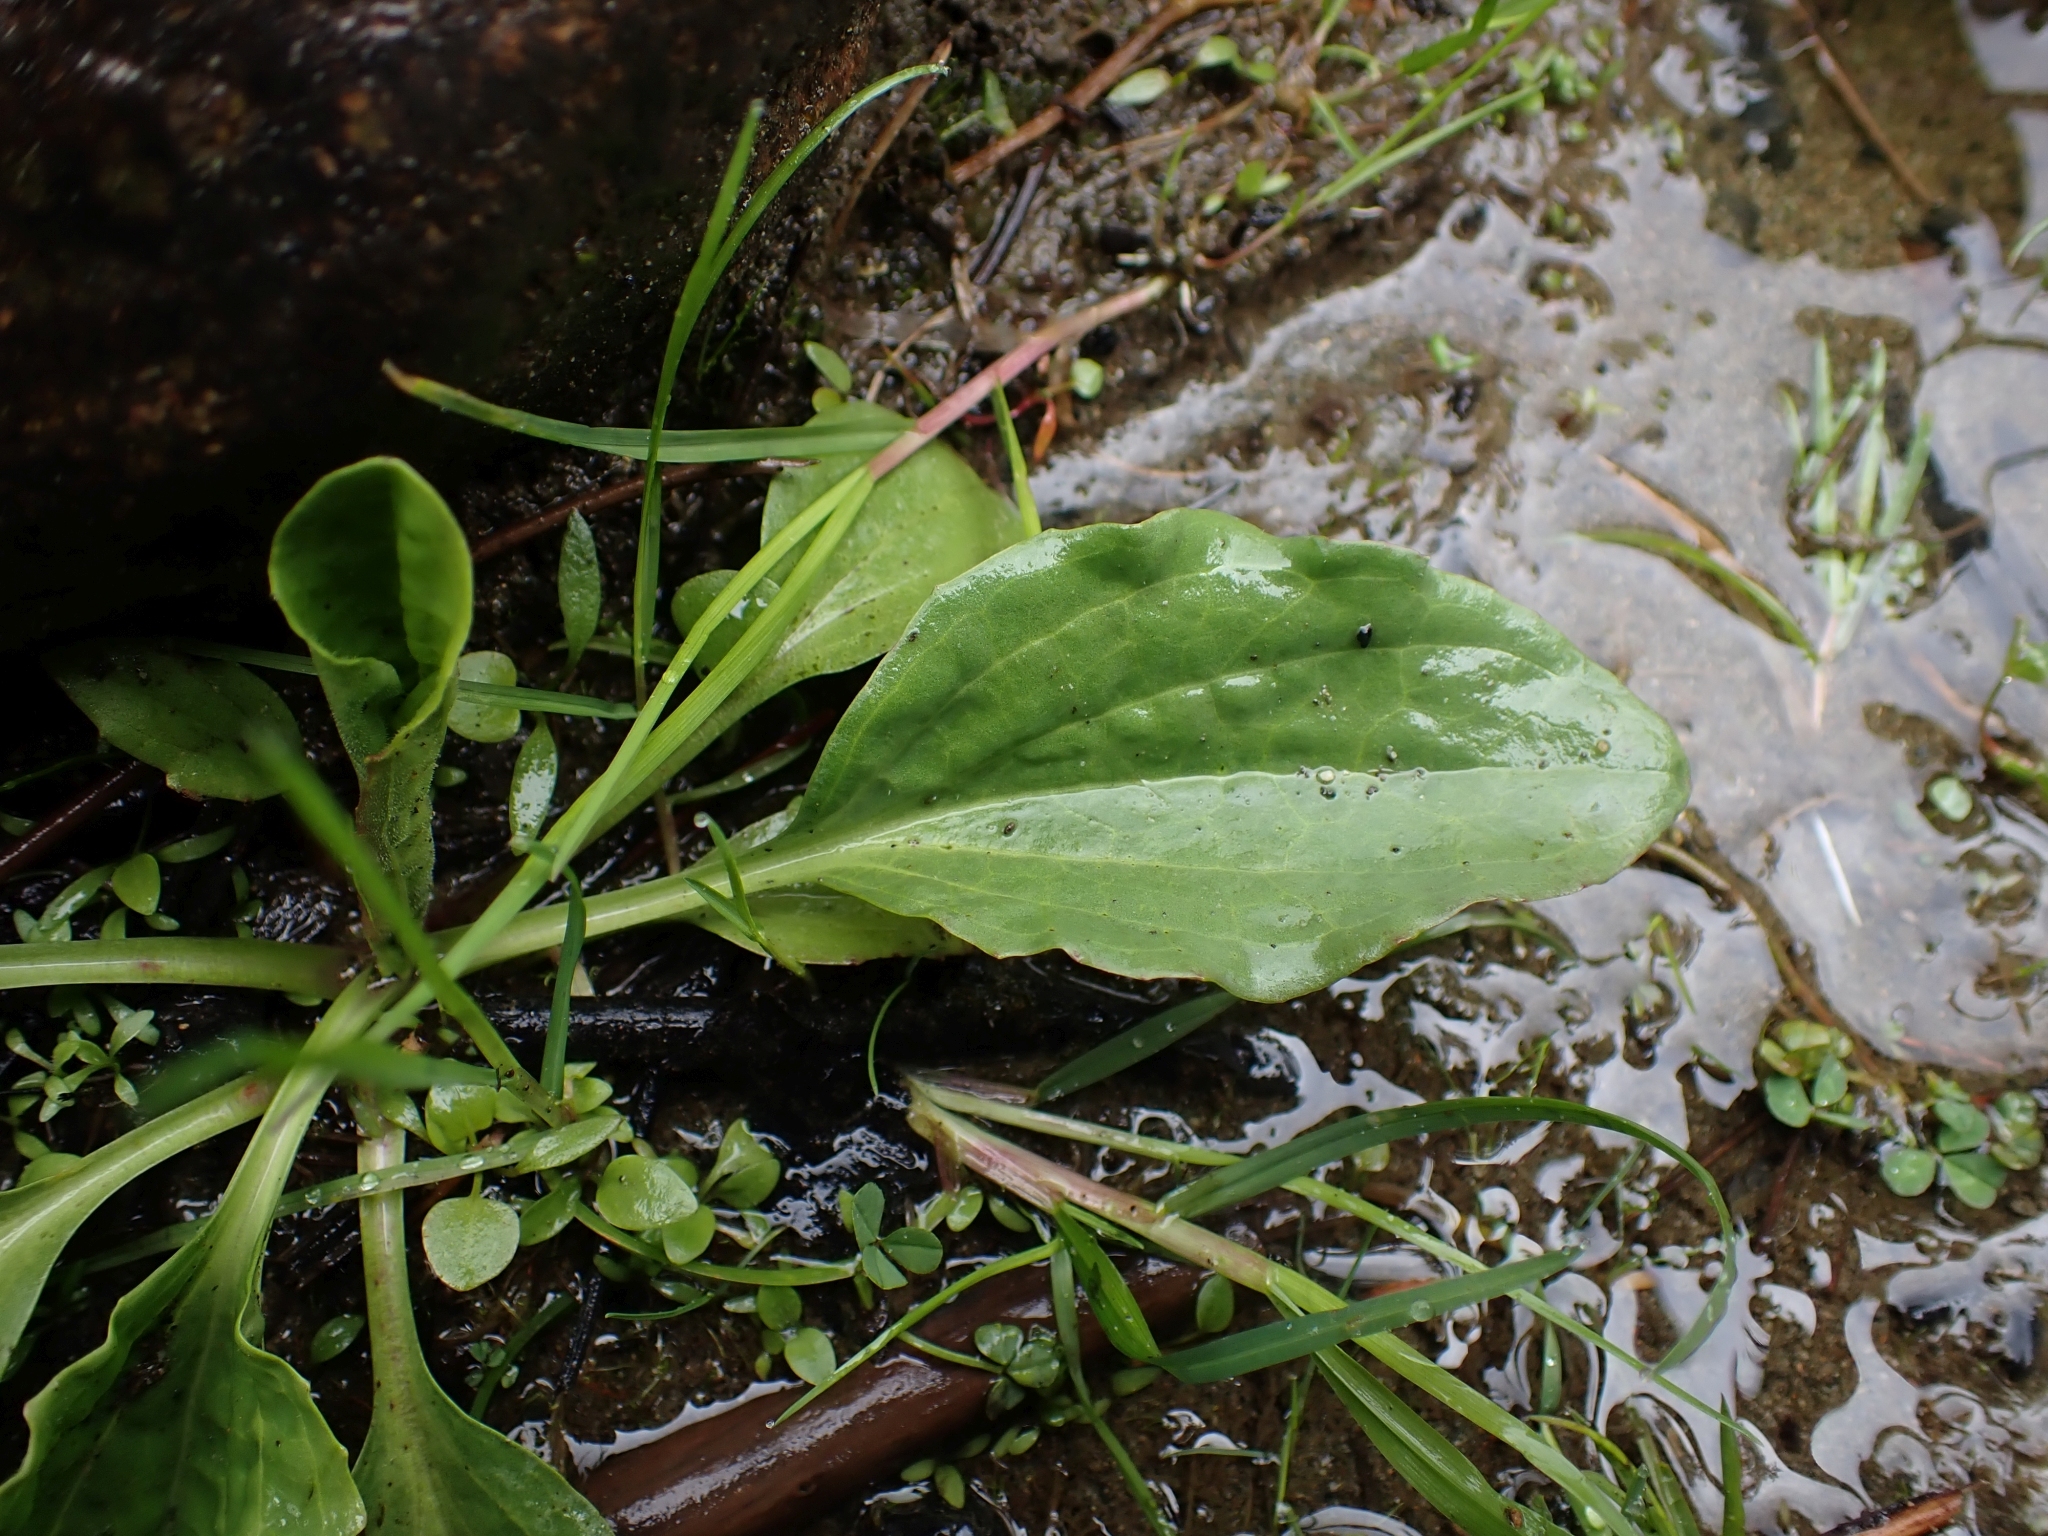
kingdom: Plantae
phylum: Tracheophyta
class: Magnoliopsida
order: Lamiales
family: Plantaginaceae
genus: Plantago
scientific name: Plantago major
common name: Common plantain
